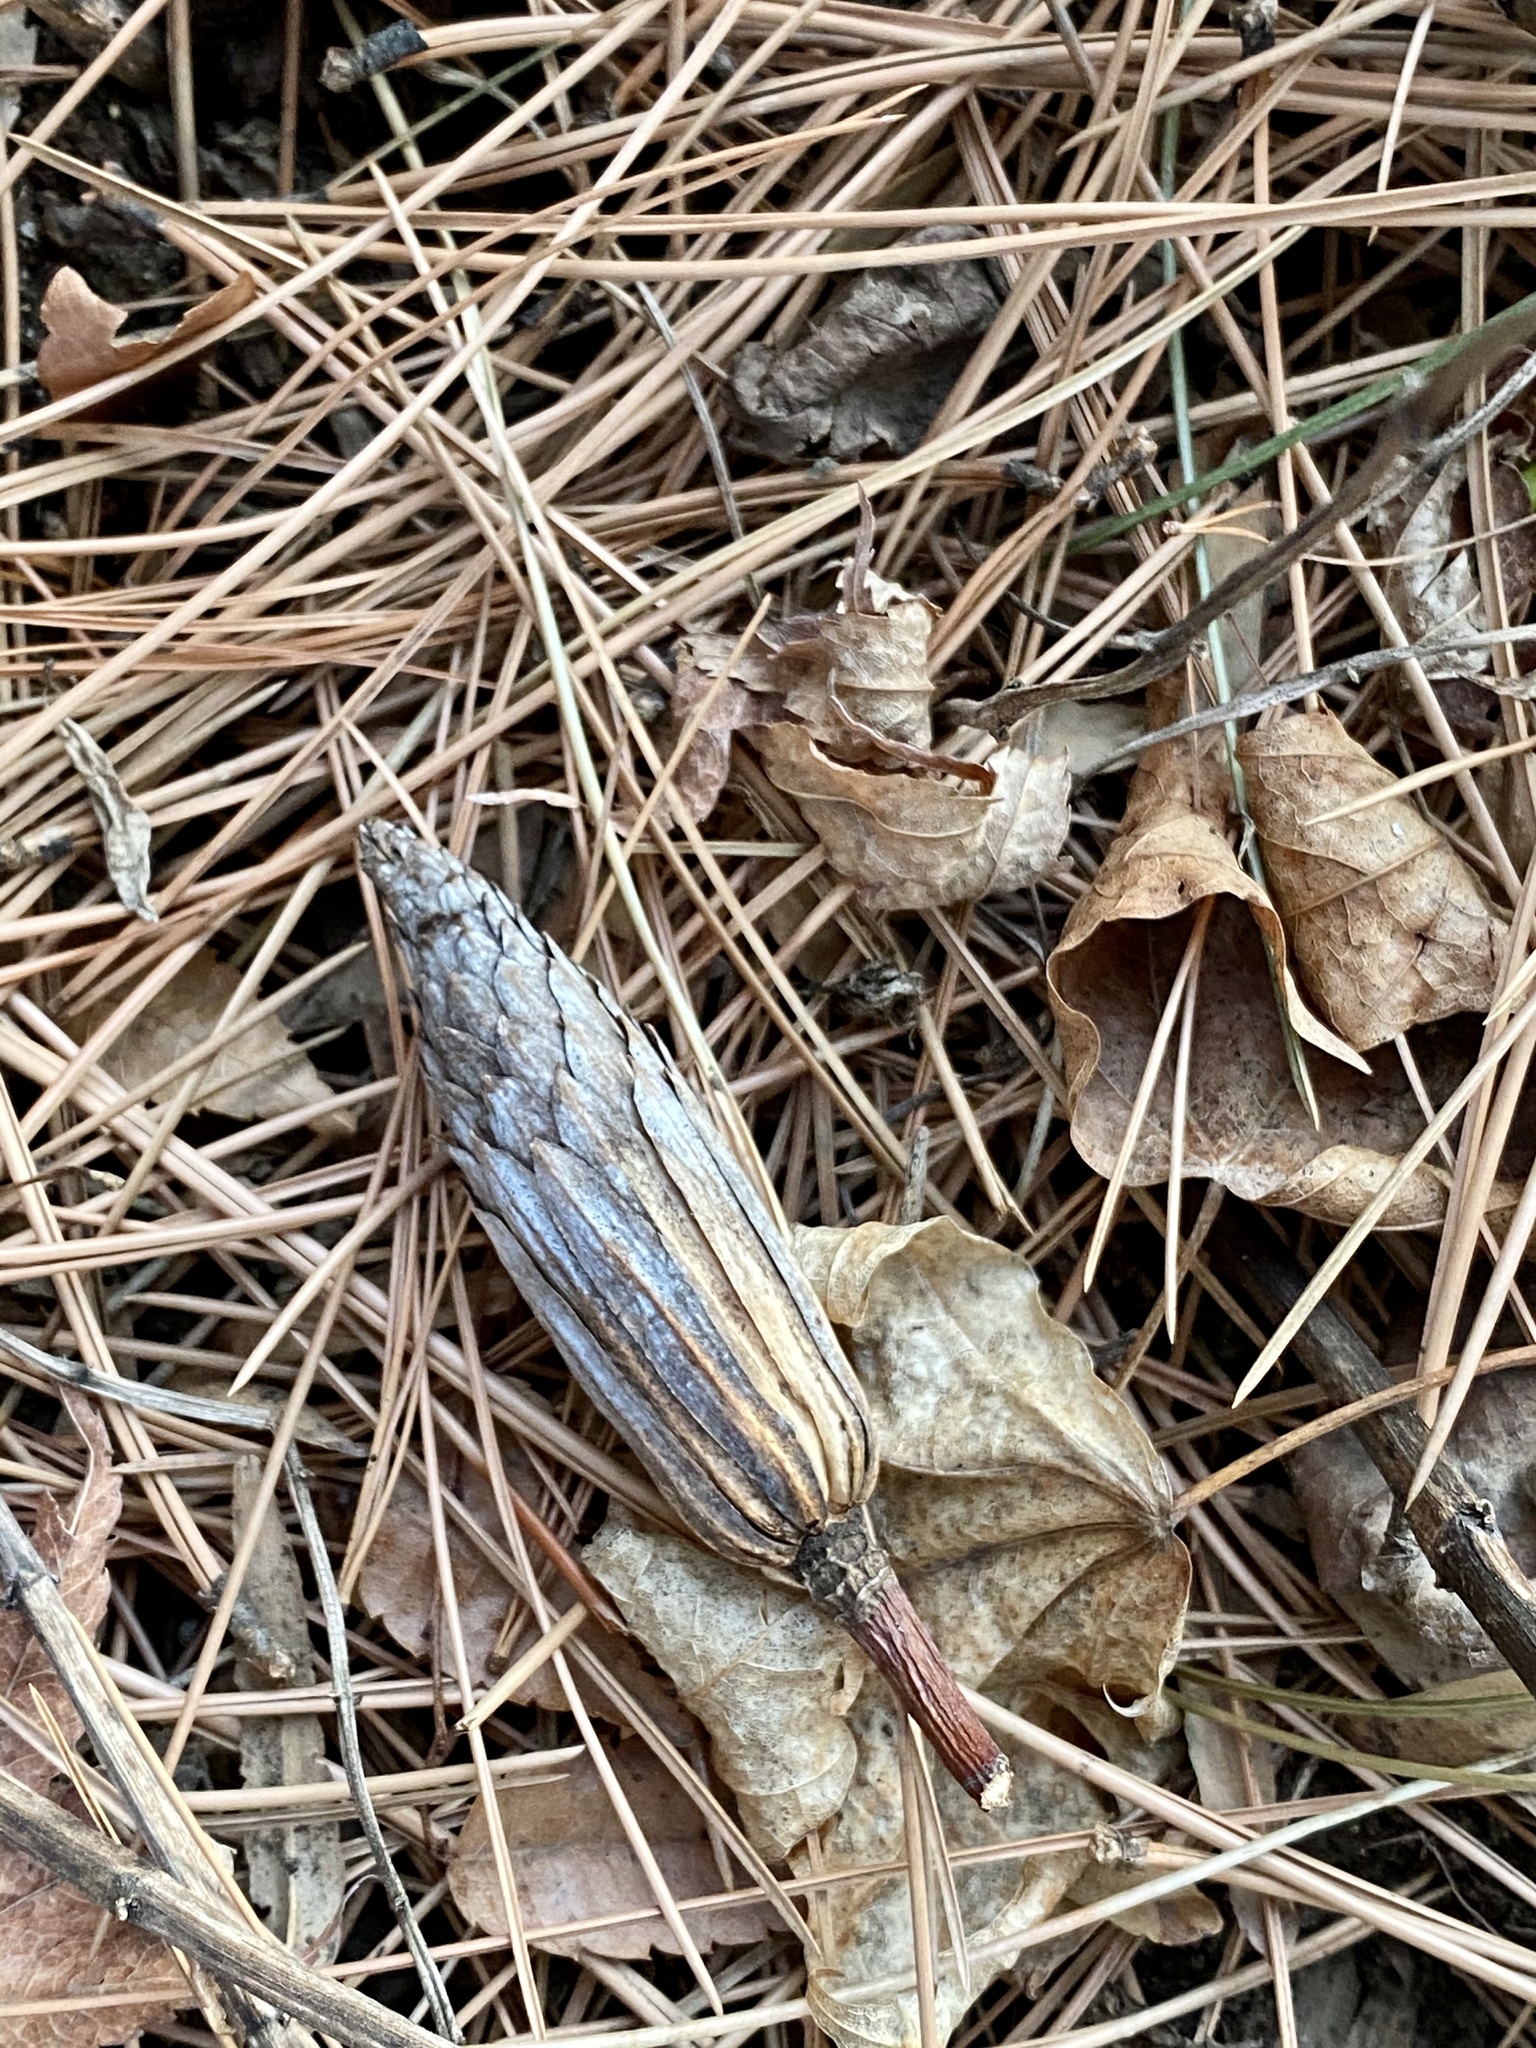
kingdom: Plantae
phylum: Tracheophyta
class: Magnoliopsida
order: Magnoliales
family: Magnoliaceae
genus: Liriodendron
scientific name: Liriodendron tulipifera
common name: Tulip tree
